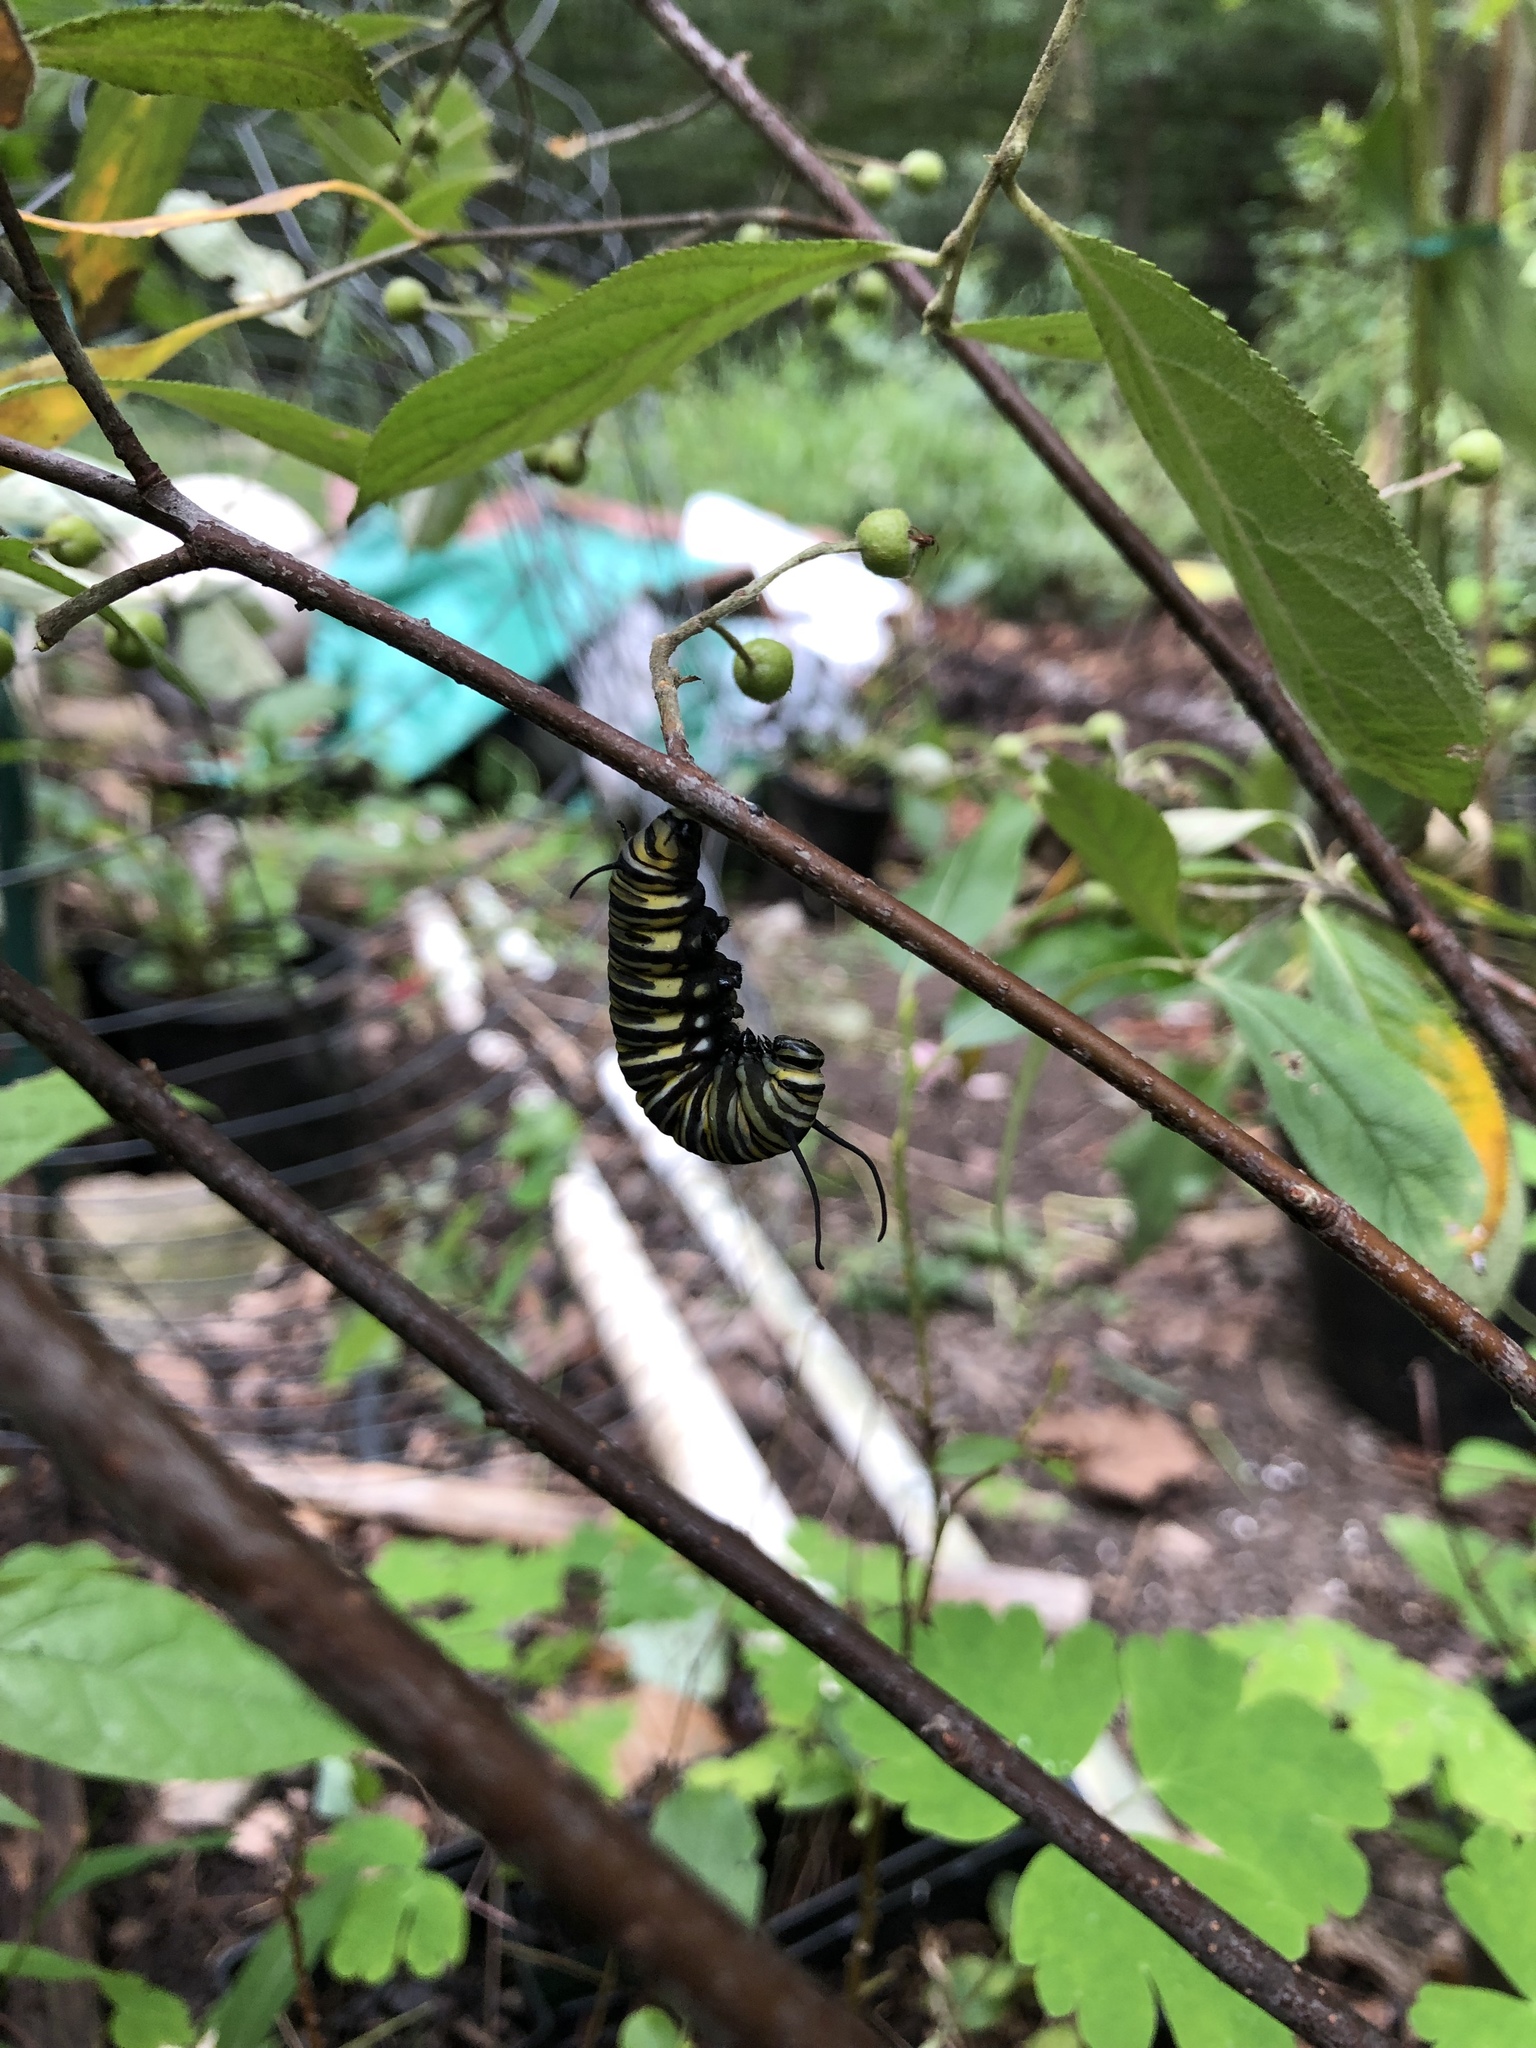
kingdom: Animalia
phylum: Arthropoda
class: Insecta
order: Lepidoptera
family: Nymphalidae
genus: Danaus
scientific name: Danaus plexippus
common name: Monarch
